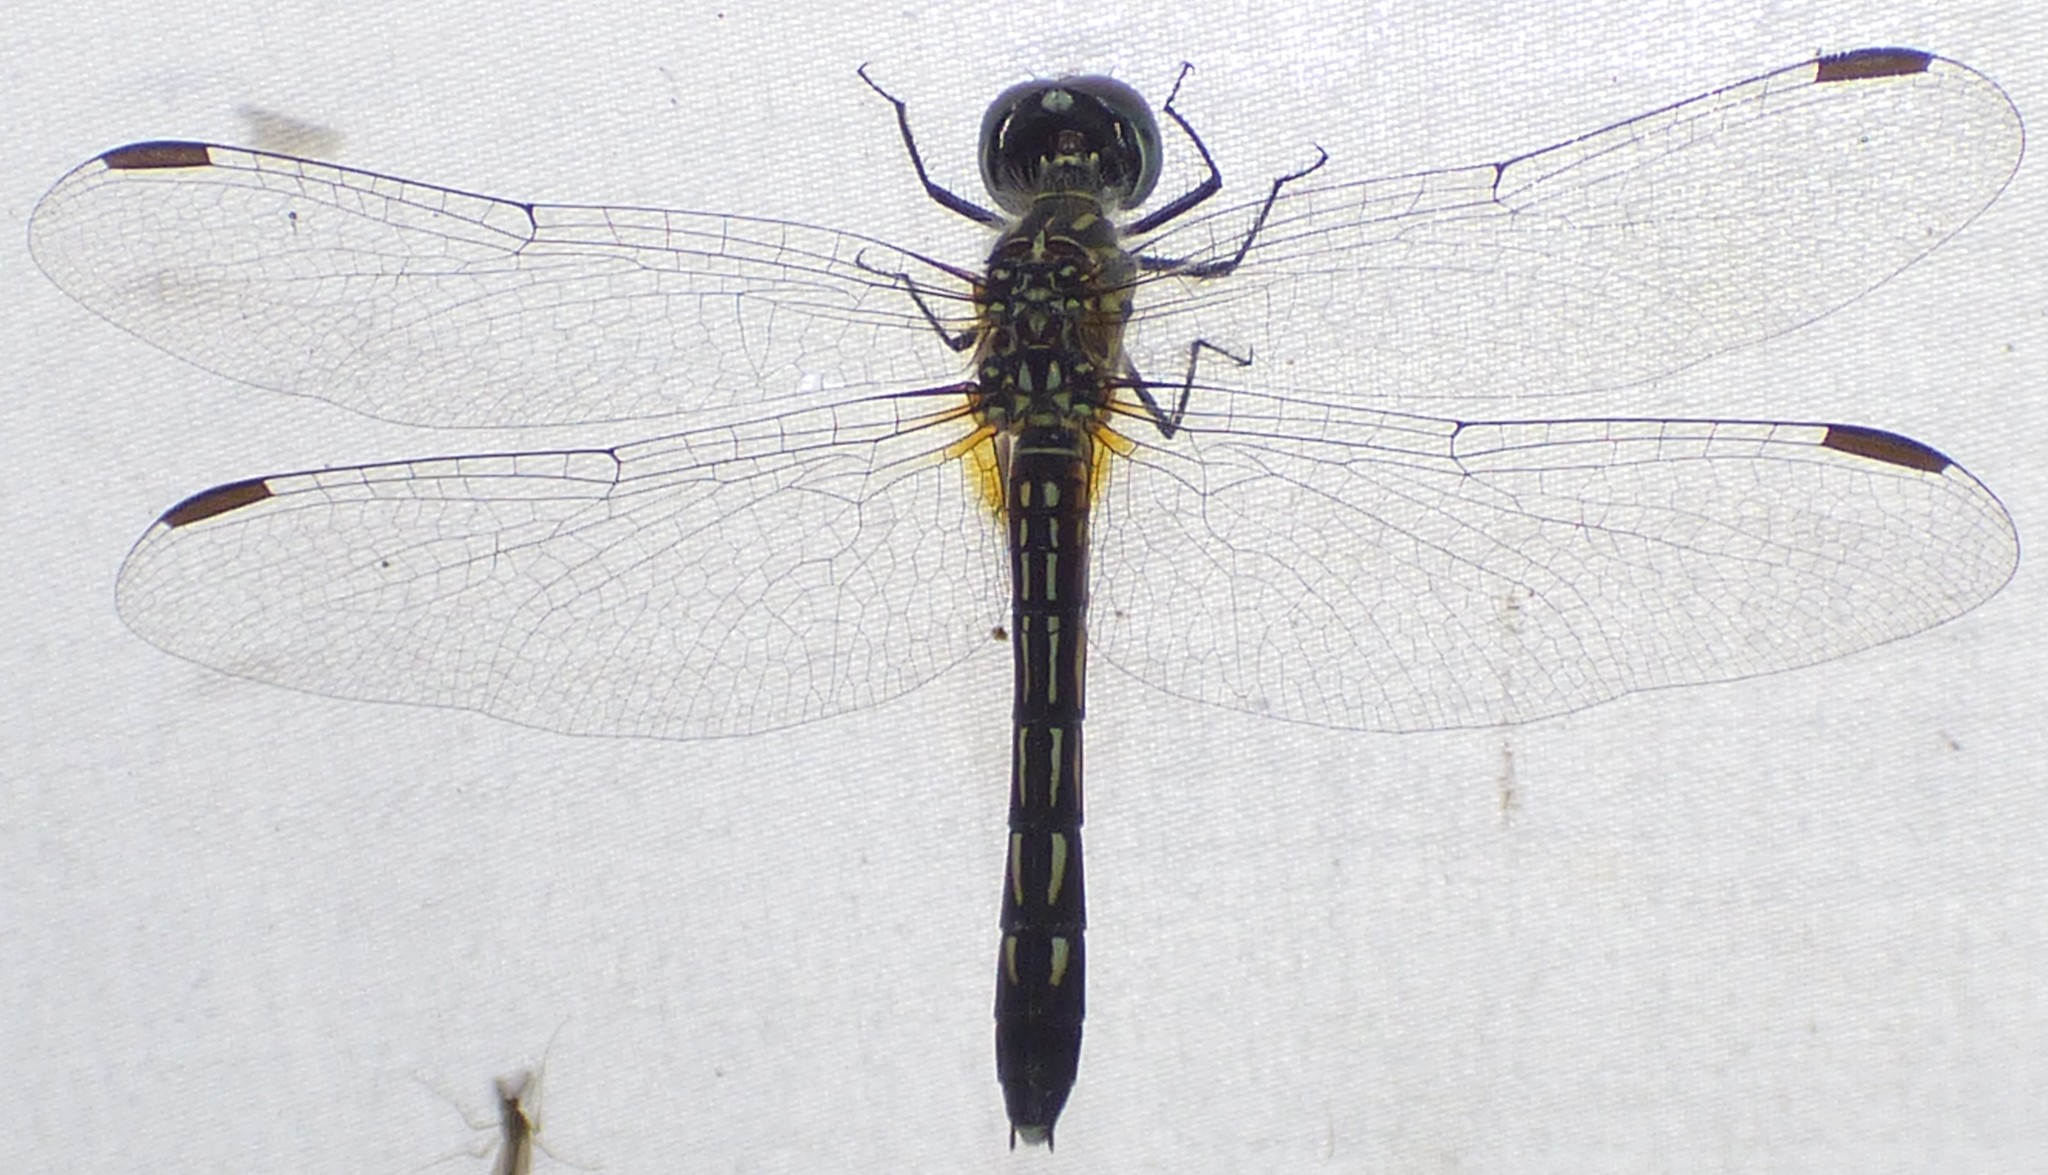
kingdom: Animalia
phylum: Arthropoda
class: Insecta
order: Odonata
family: Libellulidae
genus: Pachydiplax
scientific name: Pachydiplax longipennis
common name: Blue dasher
